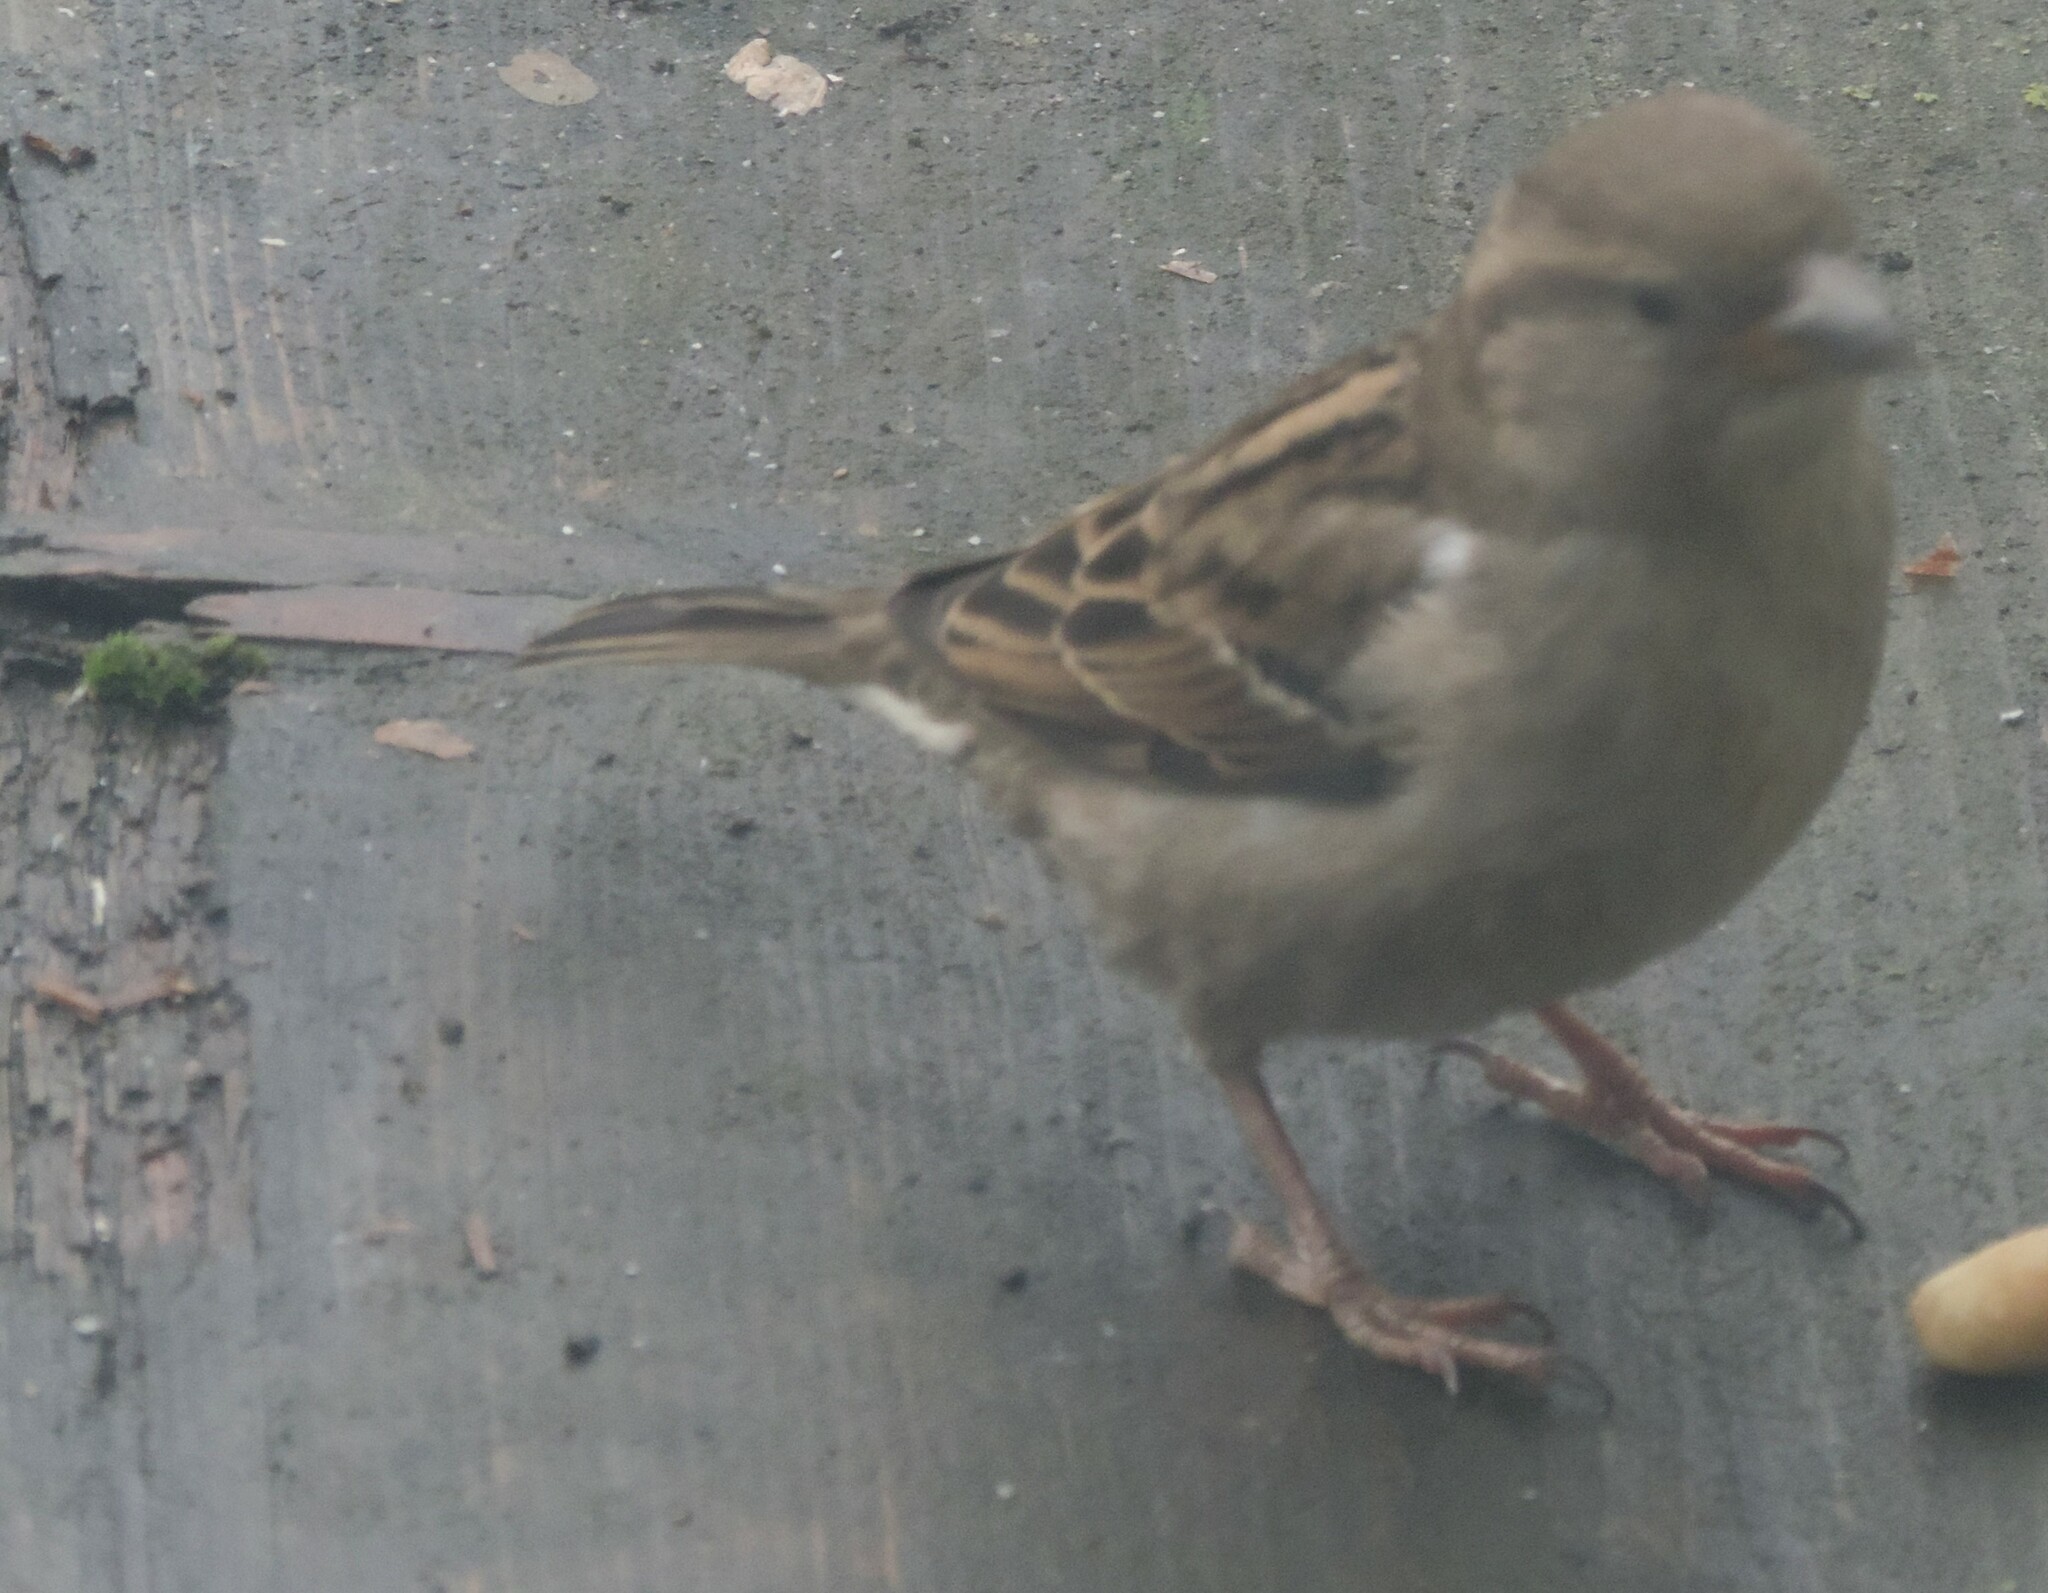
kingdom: Animalia
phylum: Chordata
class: Aves
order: Passeriformes
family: Passeridae
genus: Passer
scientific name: Passer domesticus
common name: House sparrow
